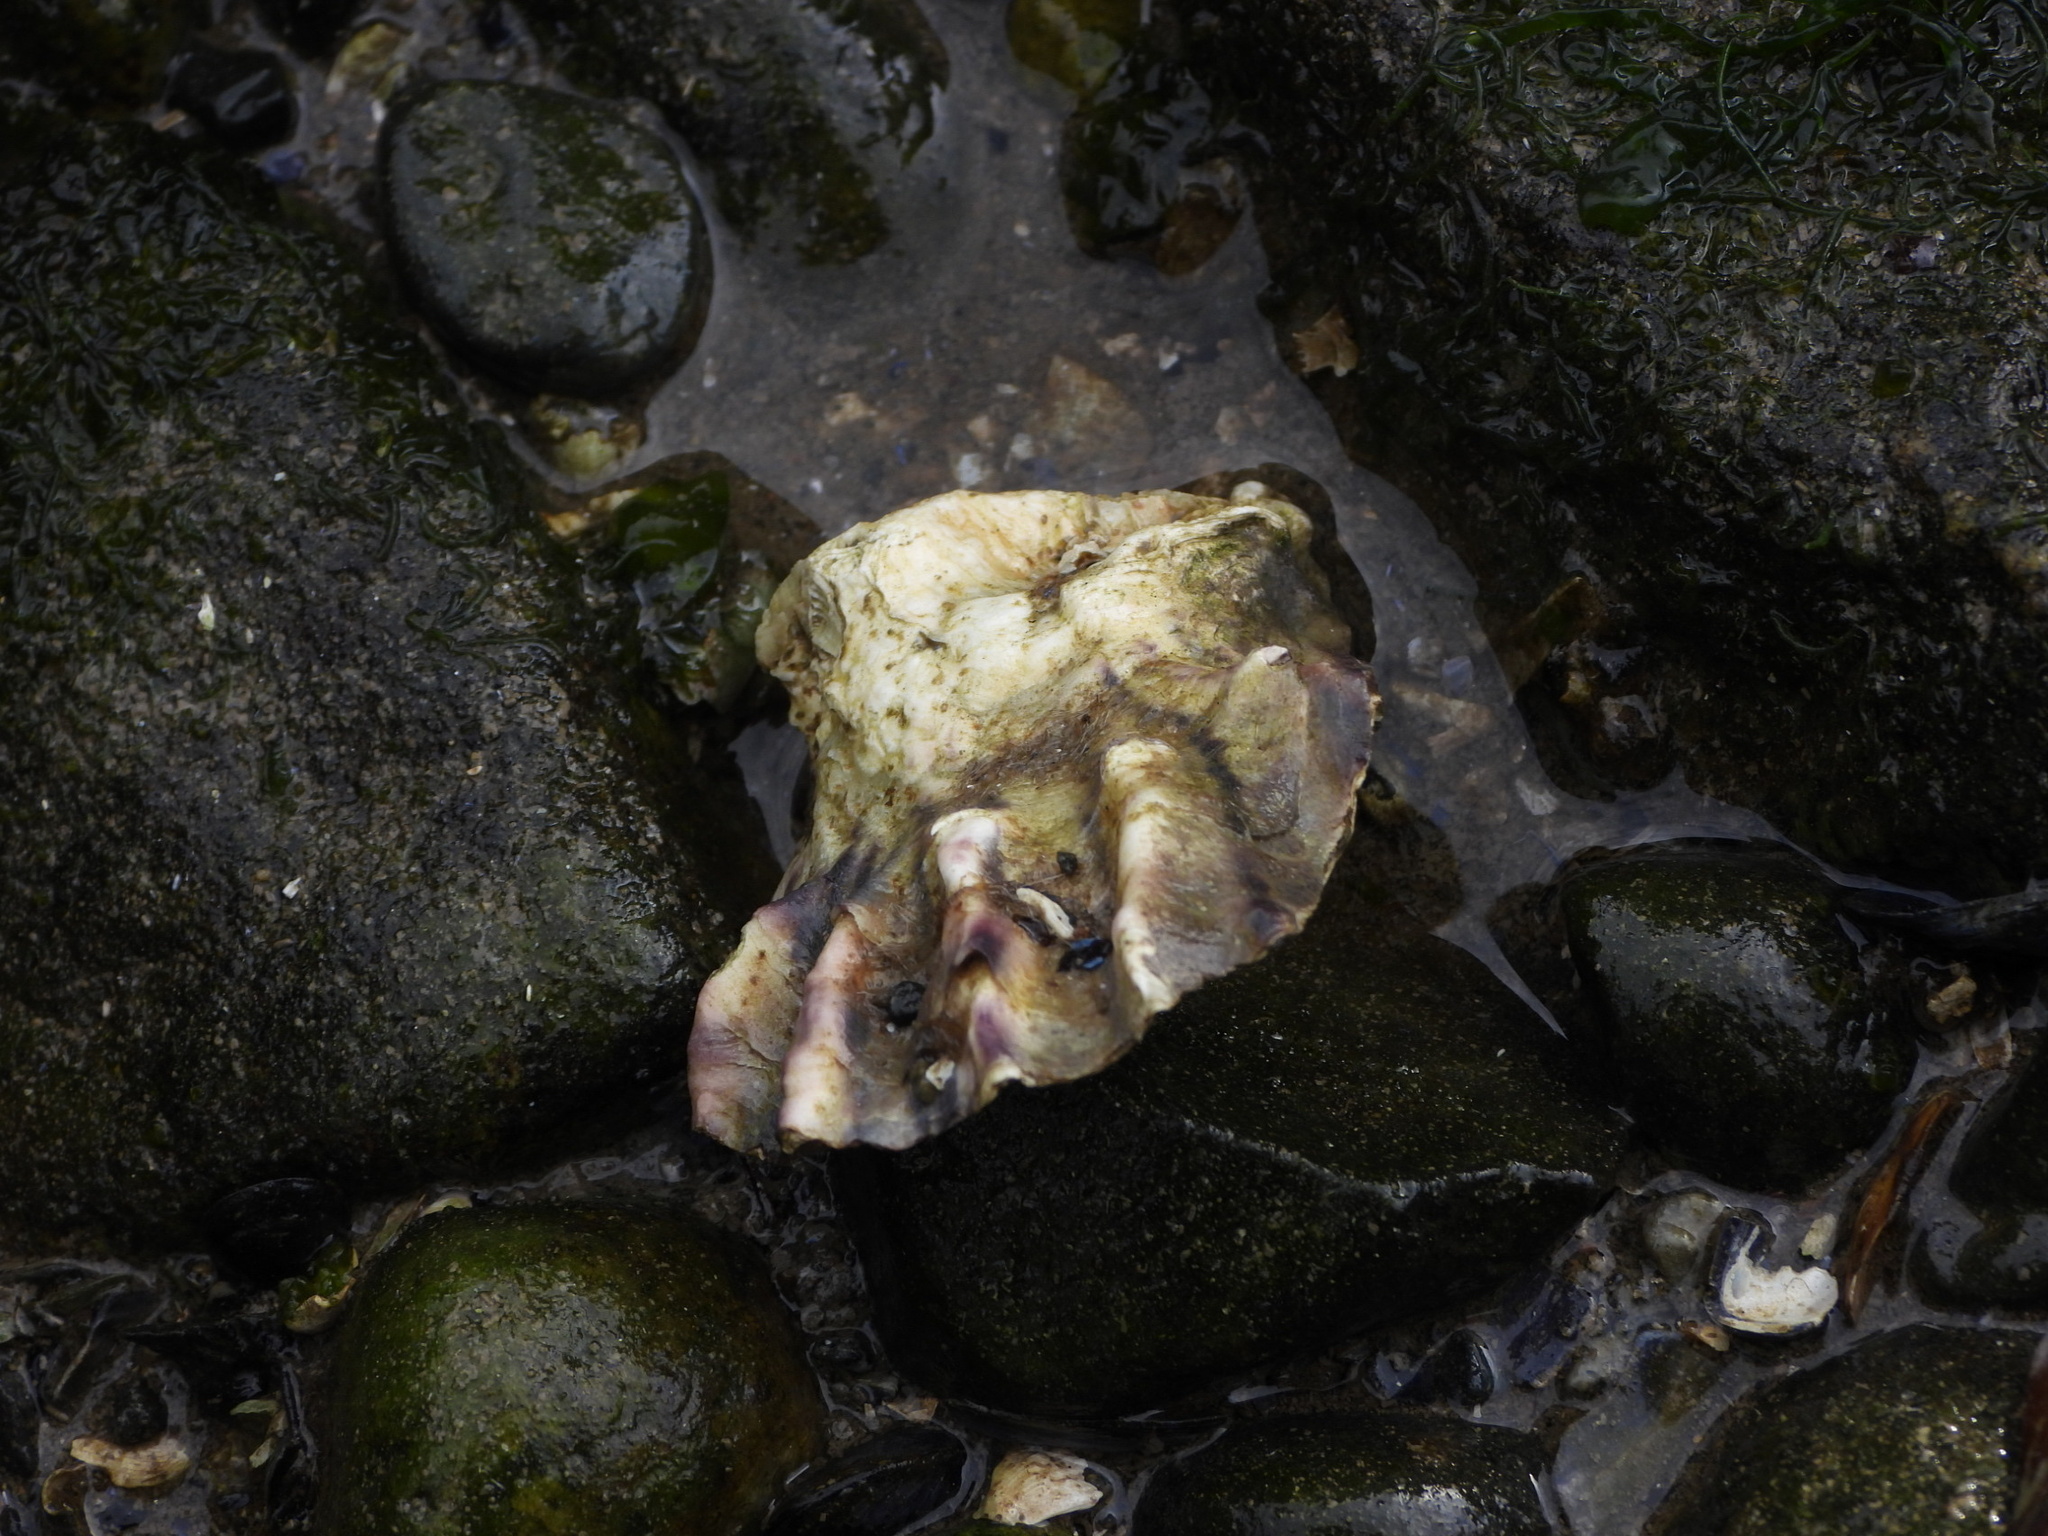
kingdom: Animalia
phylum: Mollusca
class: Bivalvia
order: Ostreida
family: Ostreidae
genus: Magallana
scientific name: Magallana gigas
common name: Pacific oyster
